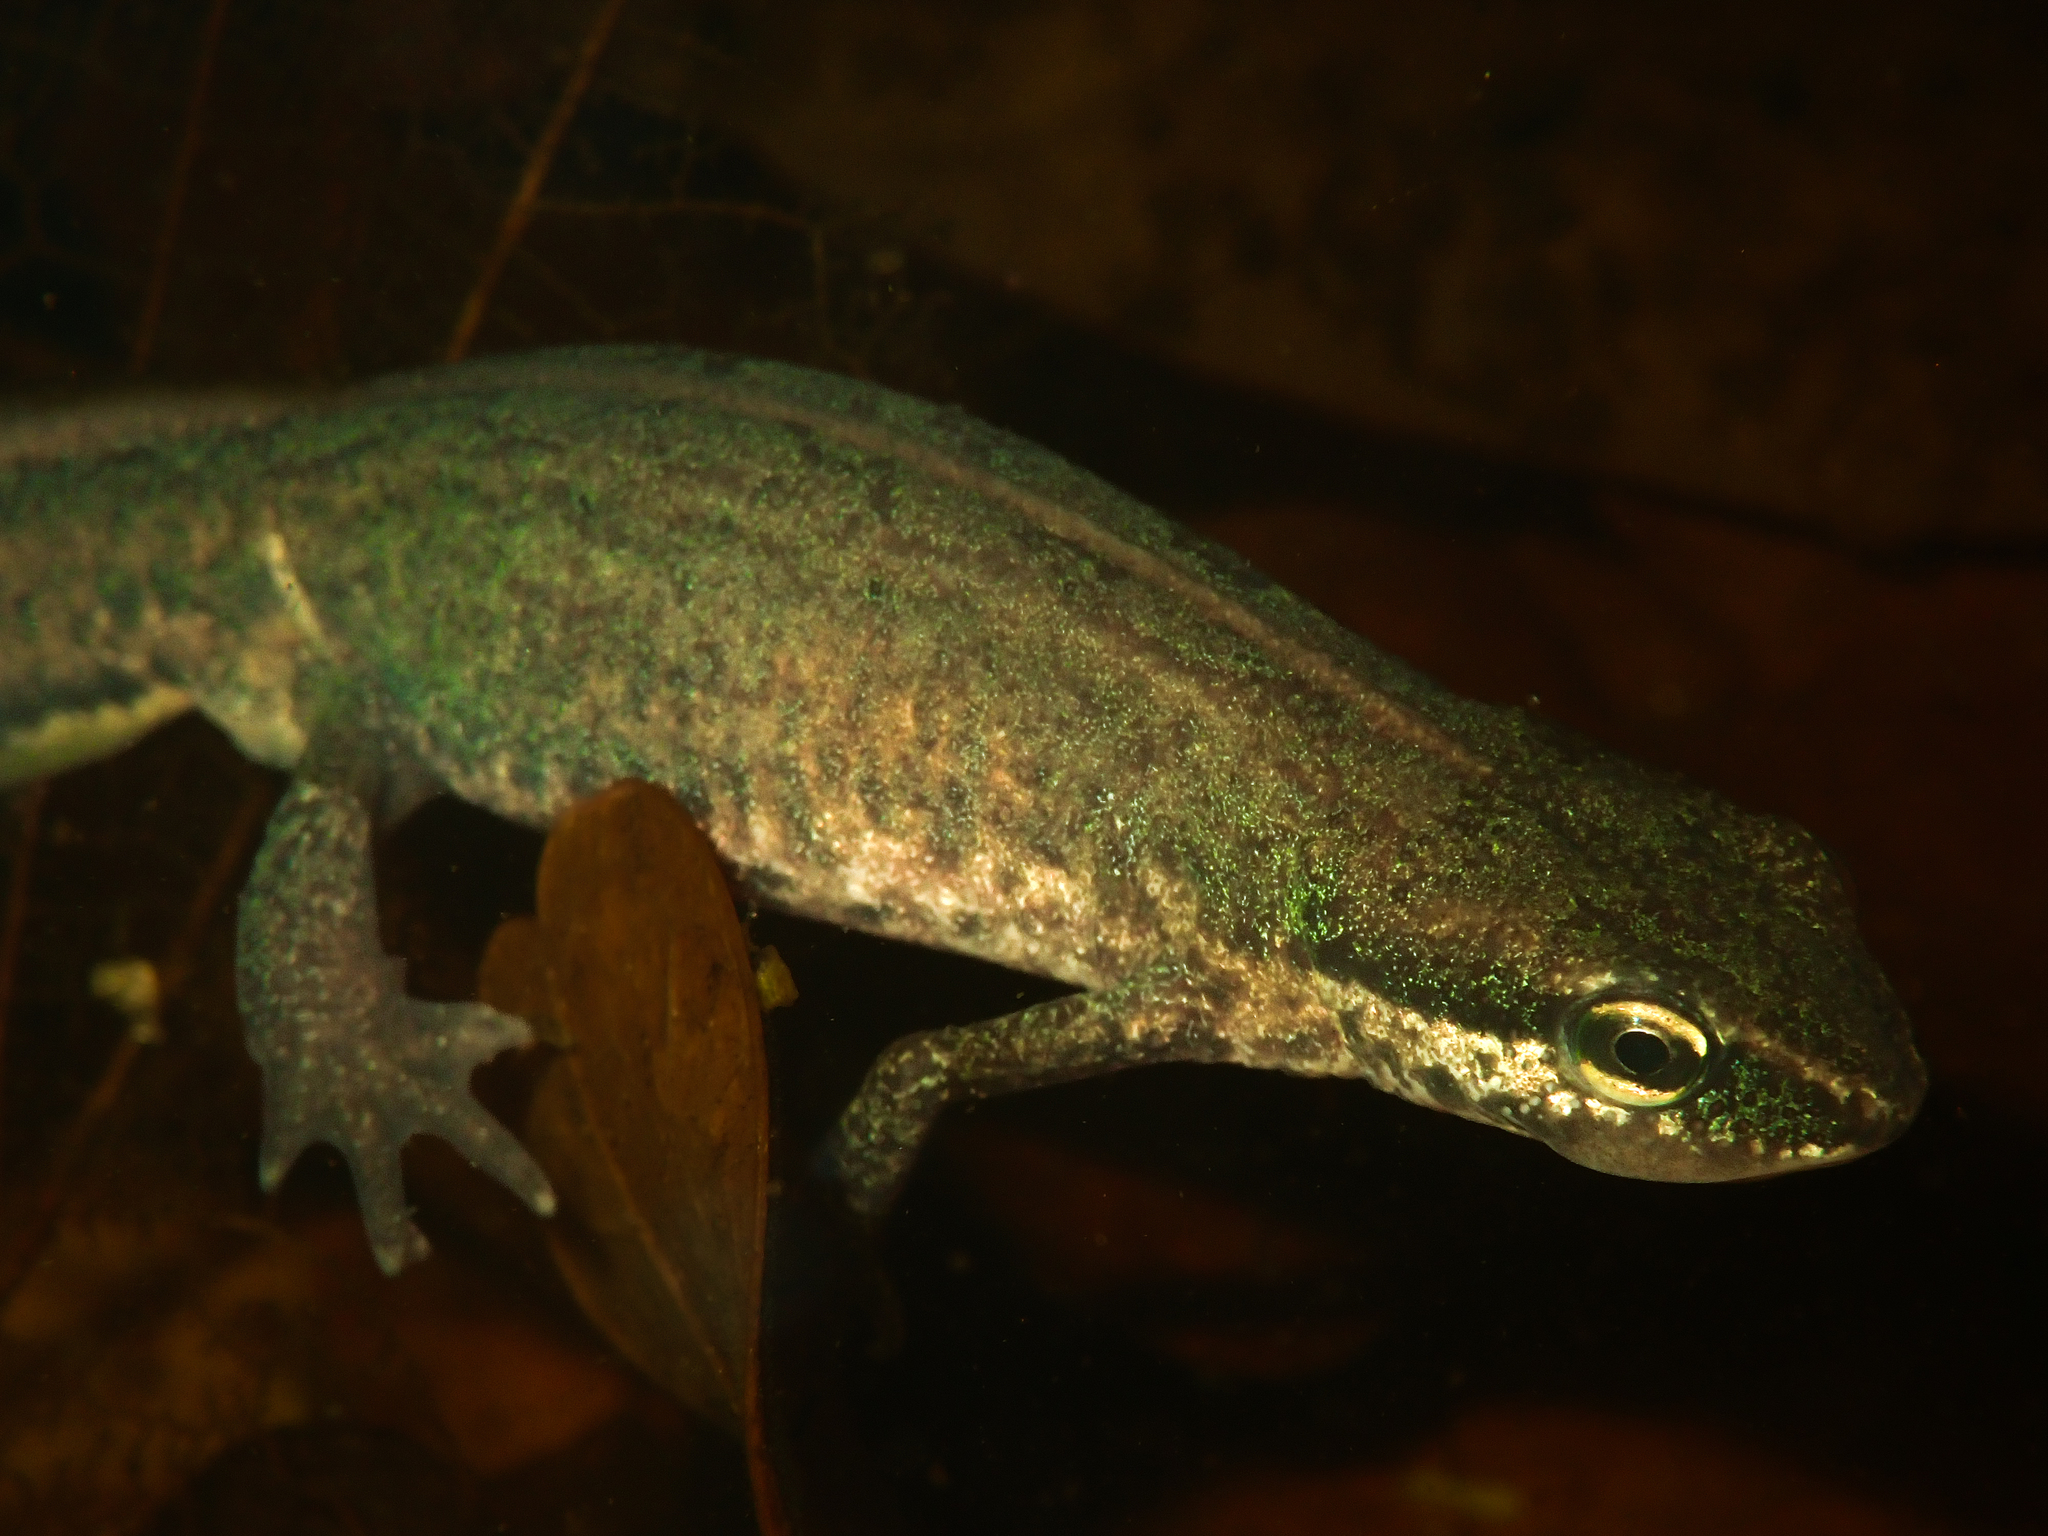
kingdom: Animalia
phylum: Chordata
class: Amphibia
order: Caudata
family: Salamandridae
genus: Lissotriton
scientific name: Lissotriton helveticus
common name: Palmate newt
